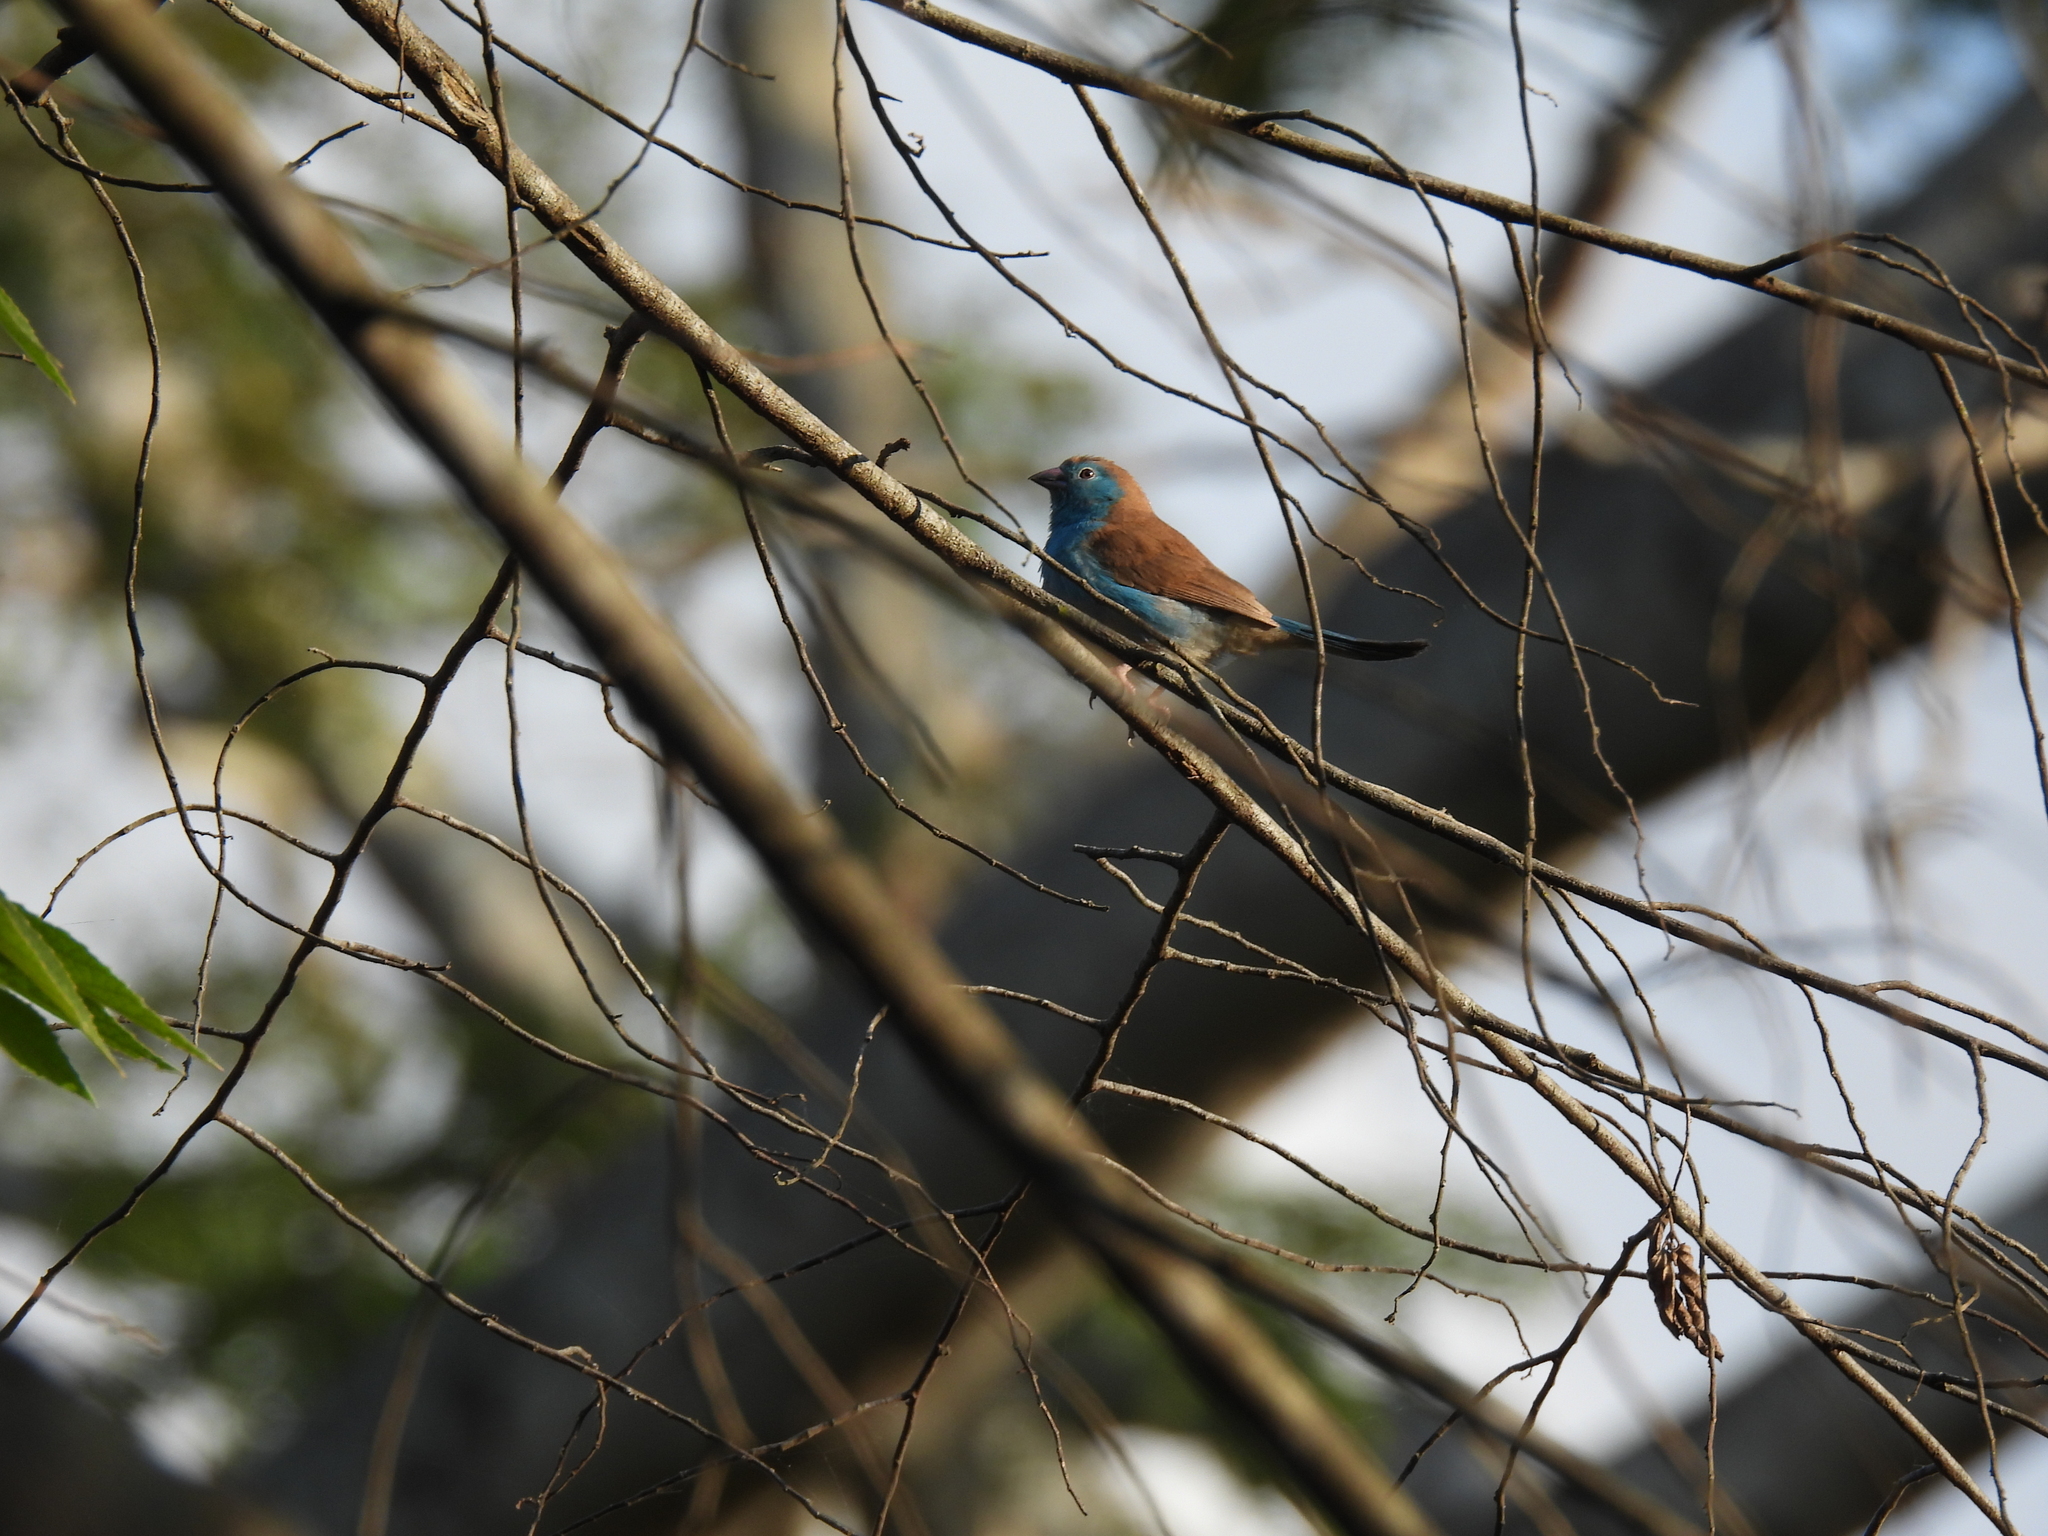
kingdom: Animalia
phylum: Chordata
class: Aves
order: Passeriformes
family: Estrildidae
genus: Uraeginthus
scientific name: Uraeginthus angolensis
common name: Blue waxbill
